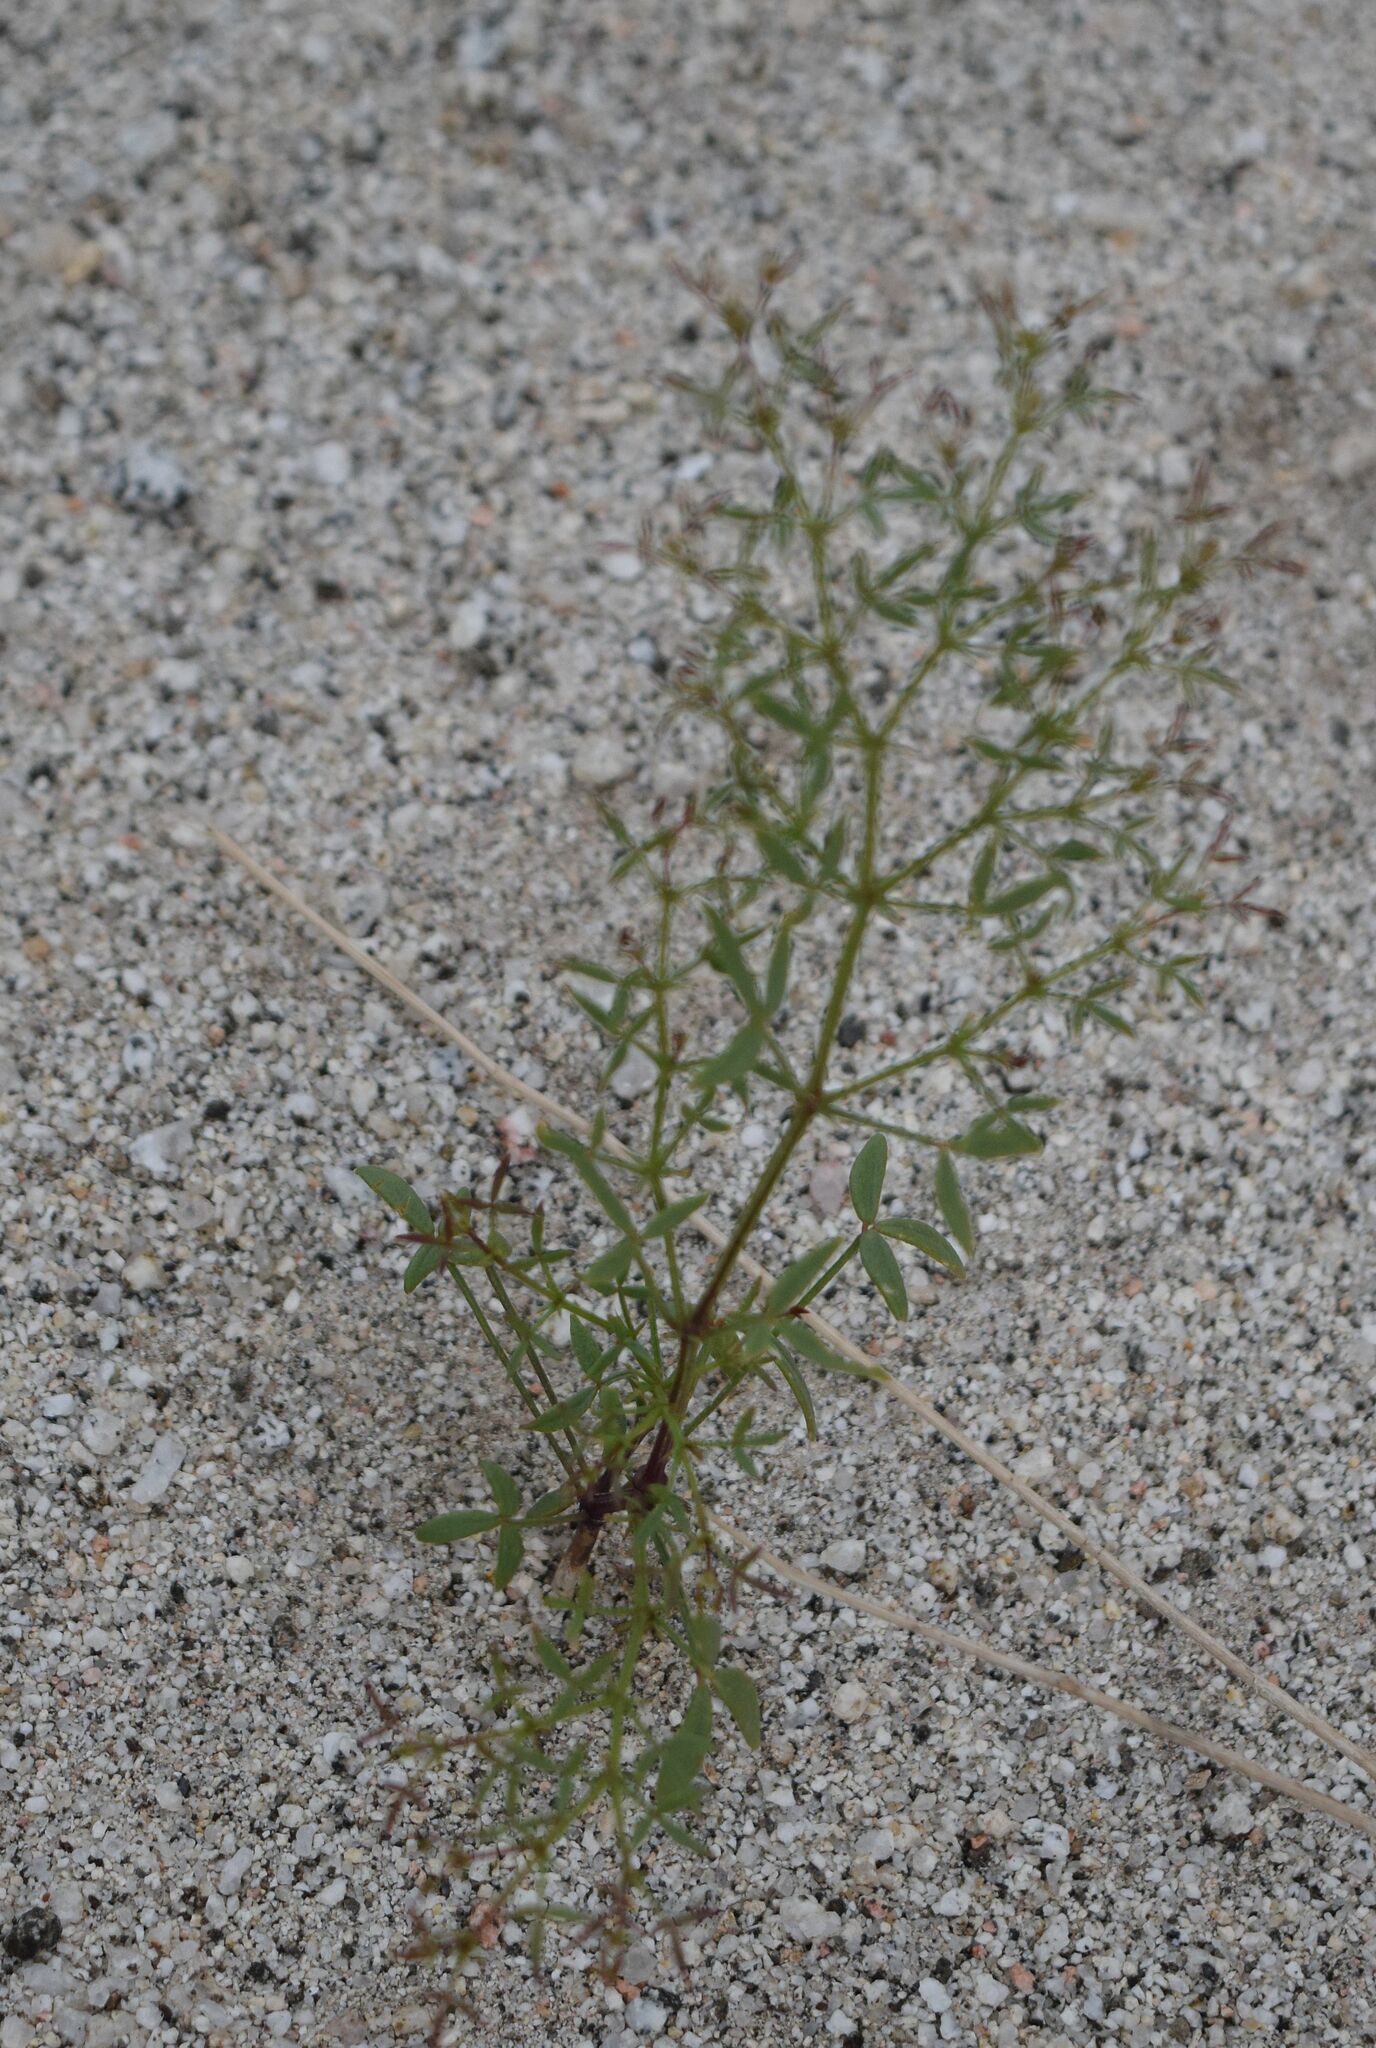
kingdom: Plantae
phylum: Tracheophyta
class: Magnoliopsida
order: Zygophyllales
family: Zygophyllaceae
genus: Fagonia
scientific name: Fagonia laevis
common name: California fagonbush
